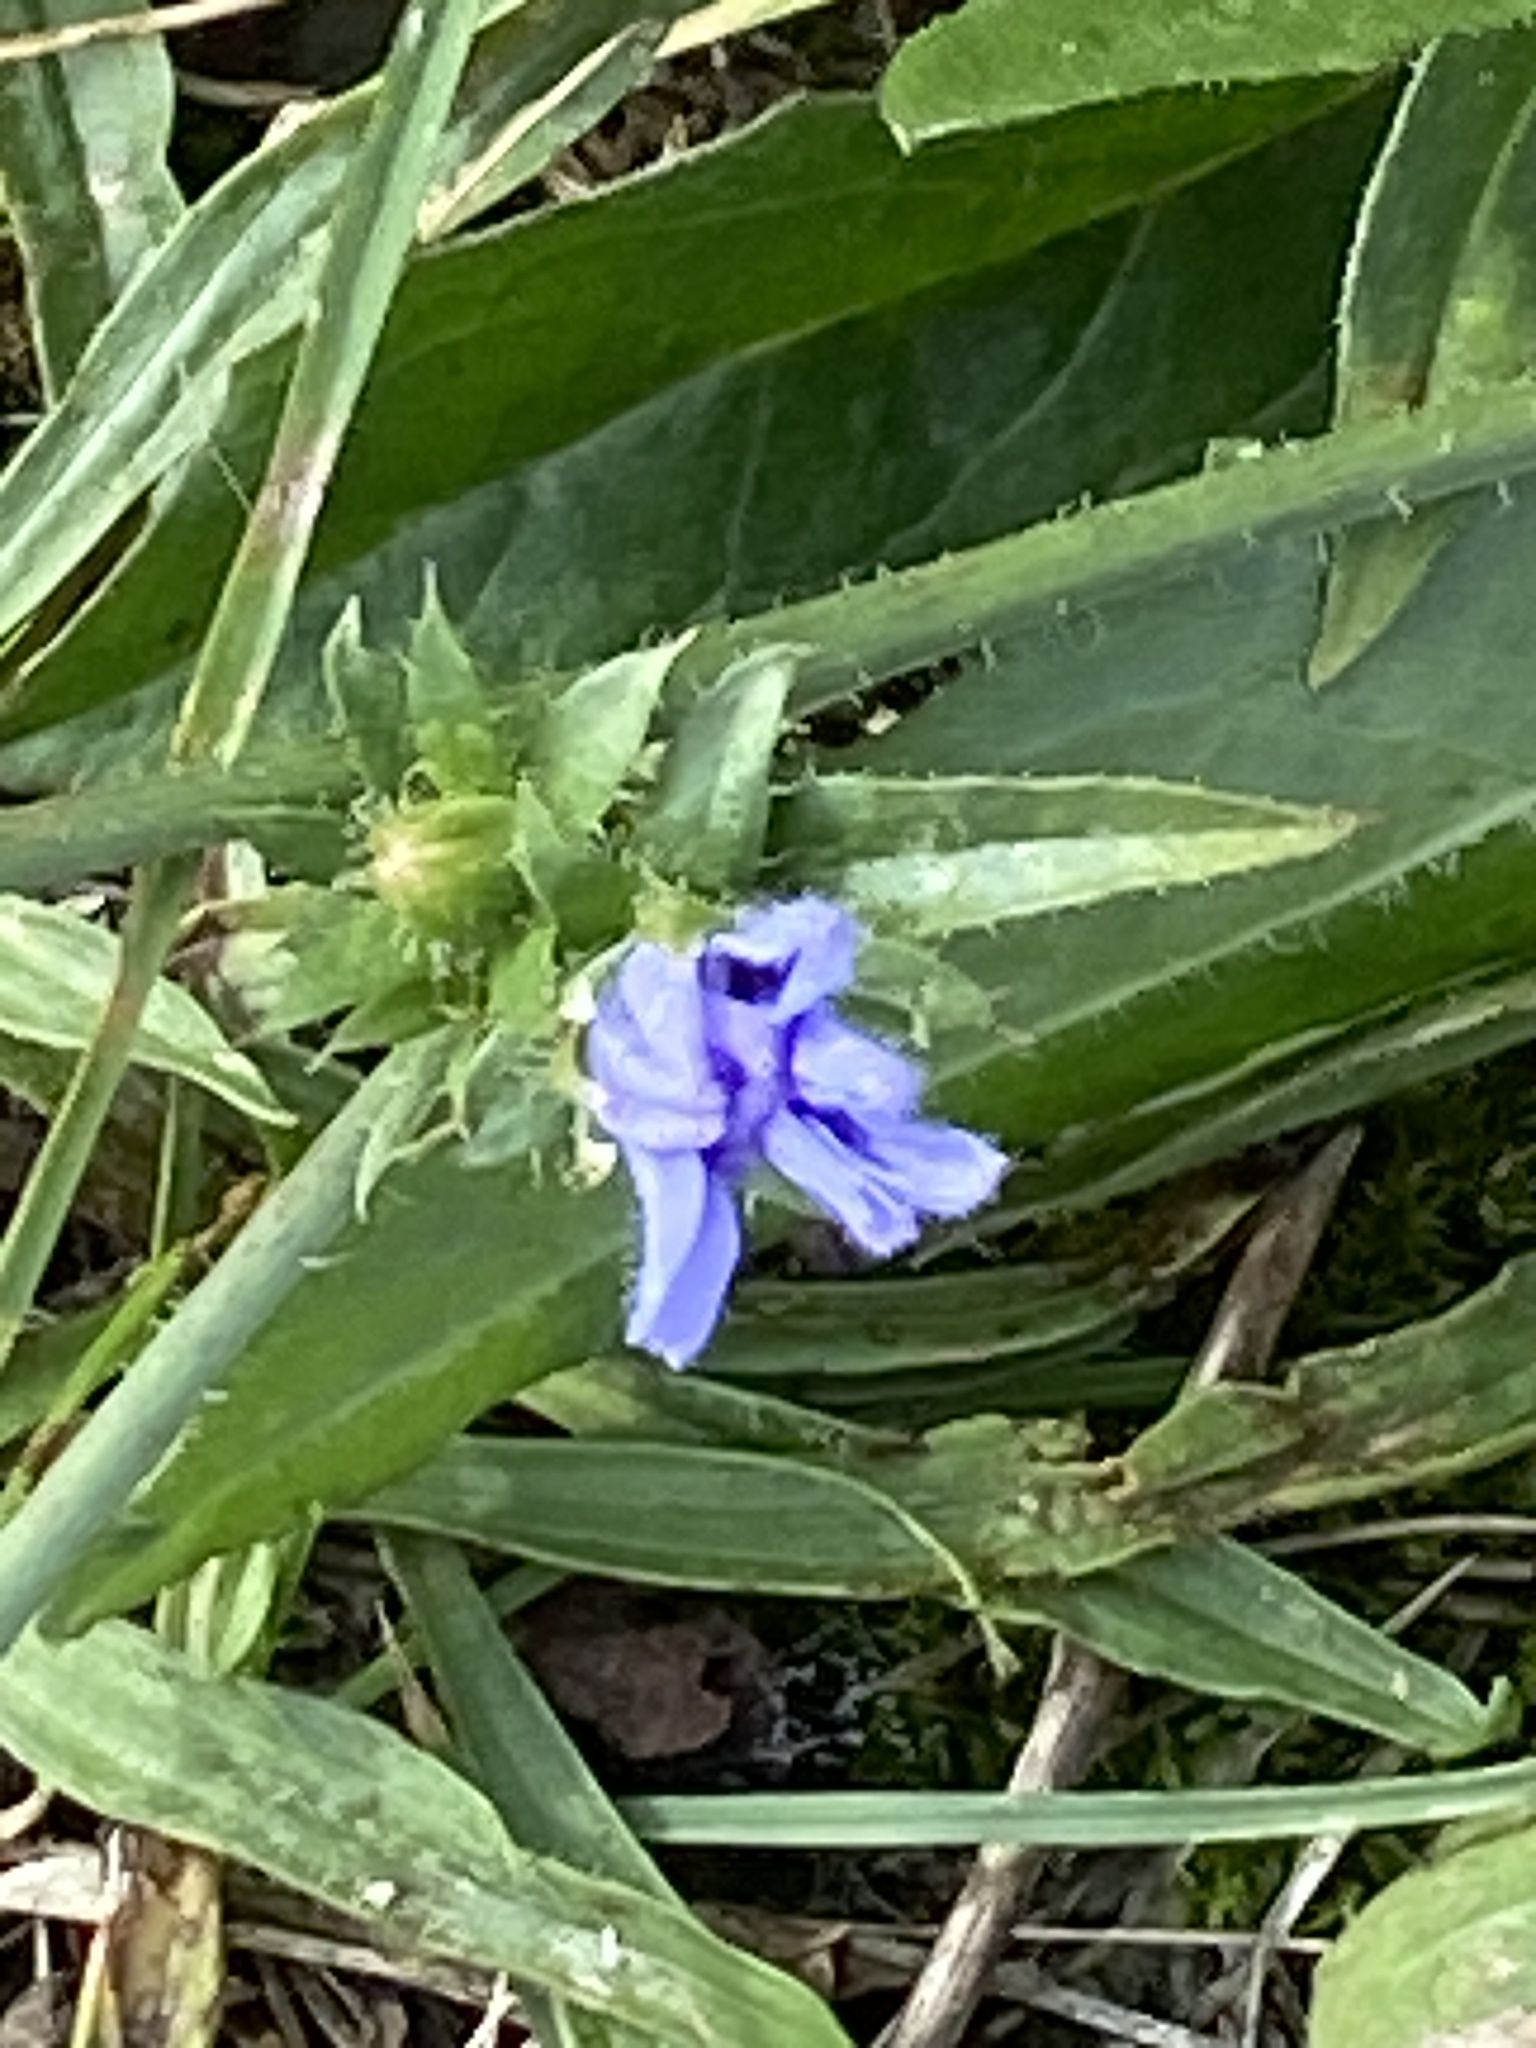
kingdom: Plantae
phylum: Tracheophyta
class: Magnoliopsida
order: Asterales
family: Asteraceae
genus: Cichorium
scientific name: Cichorium intybus
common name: Chicory
